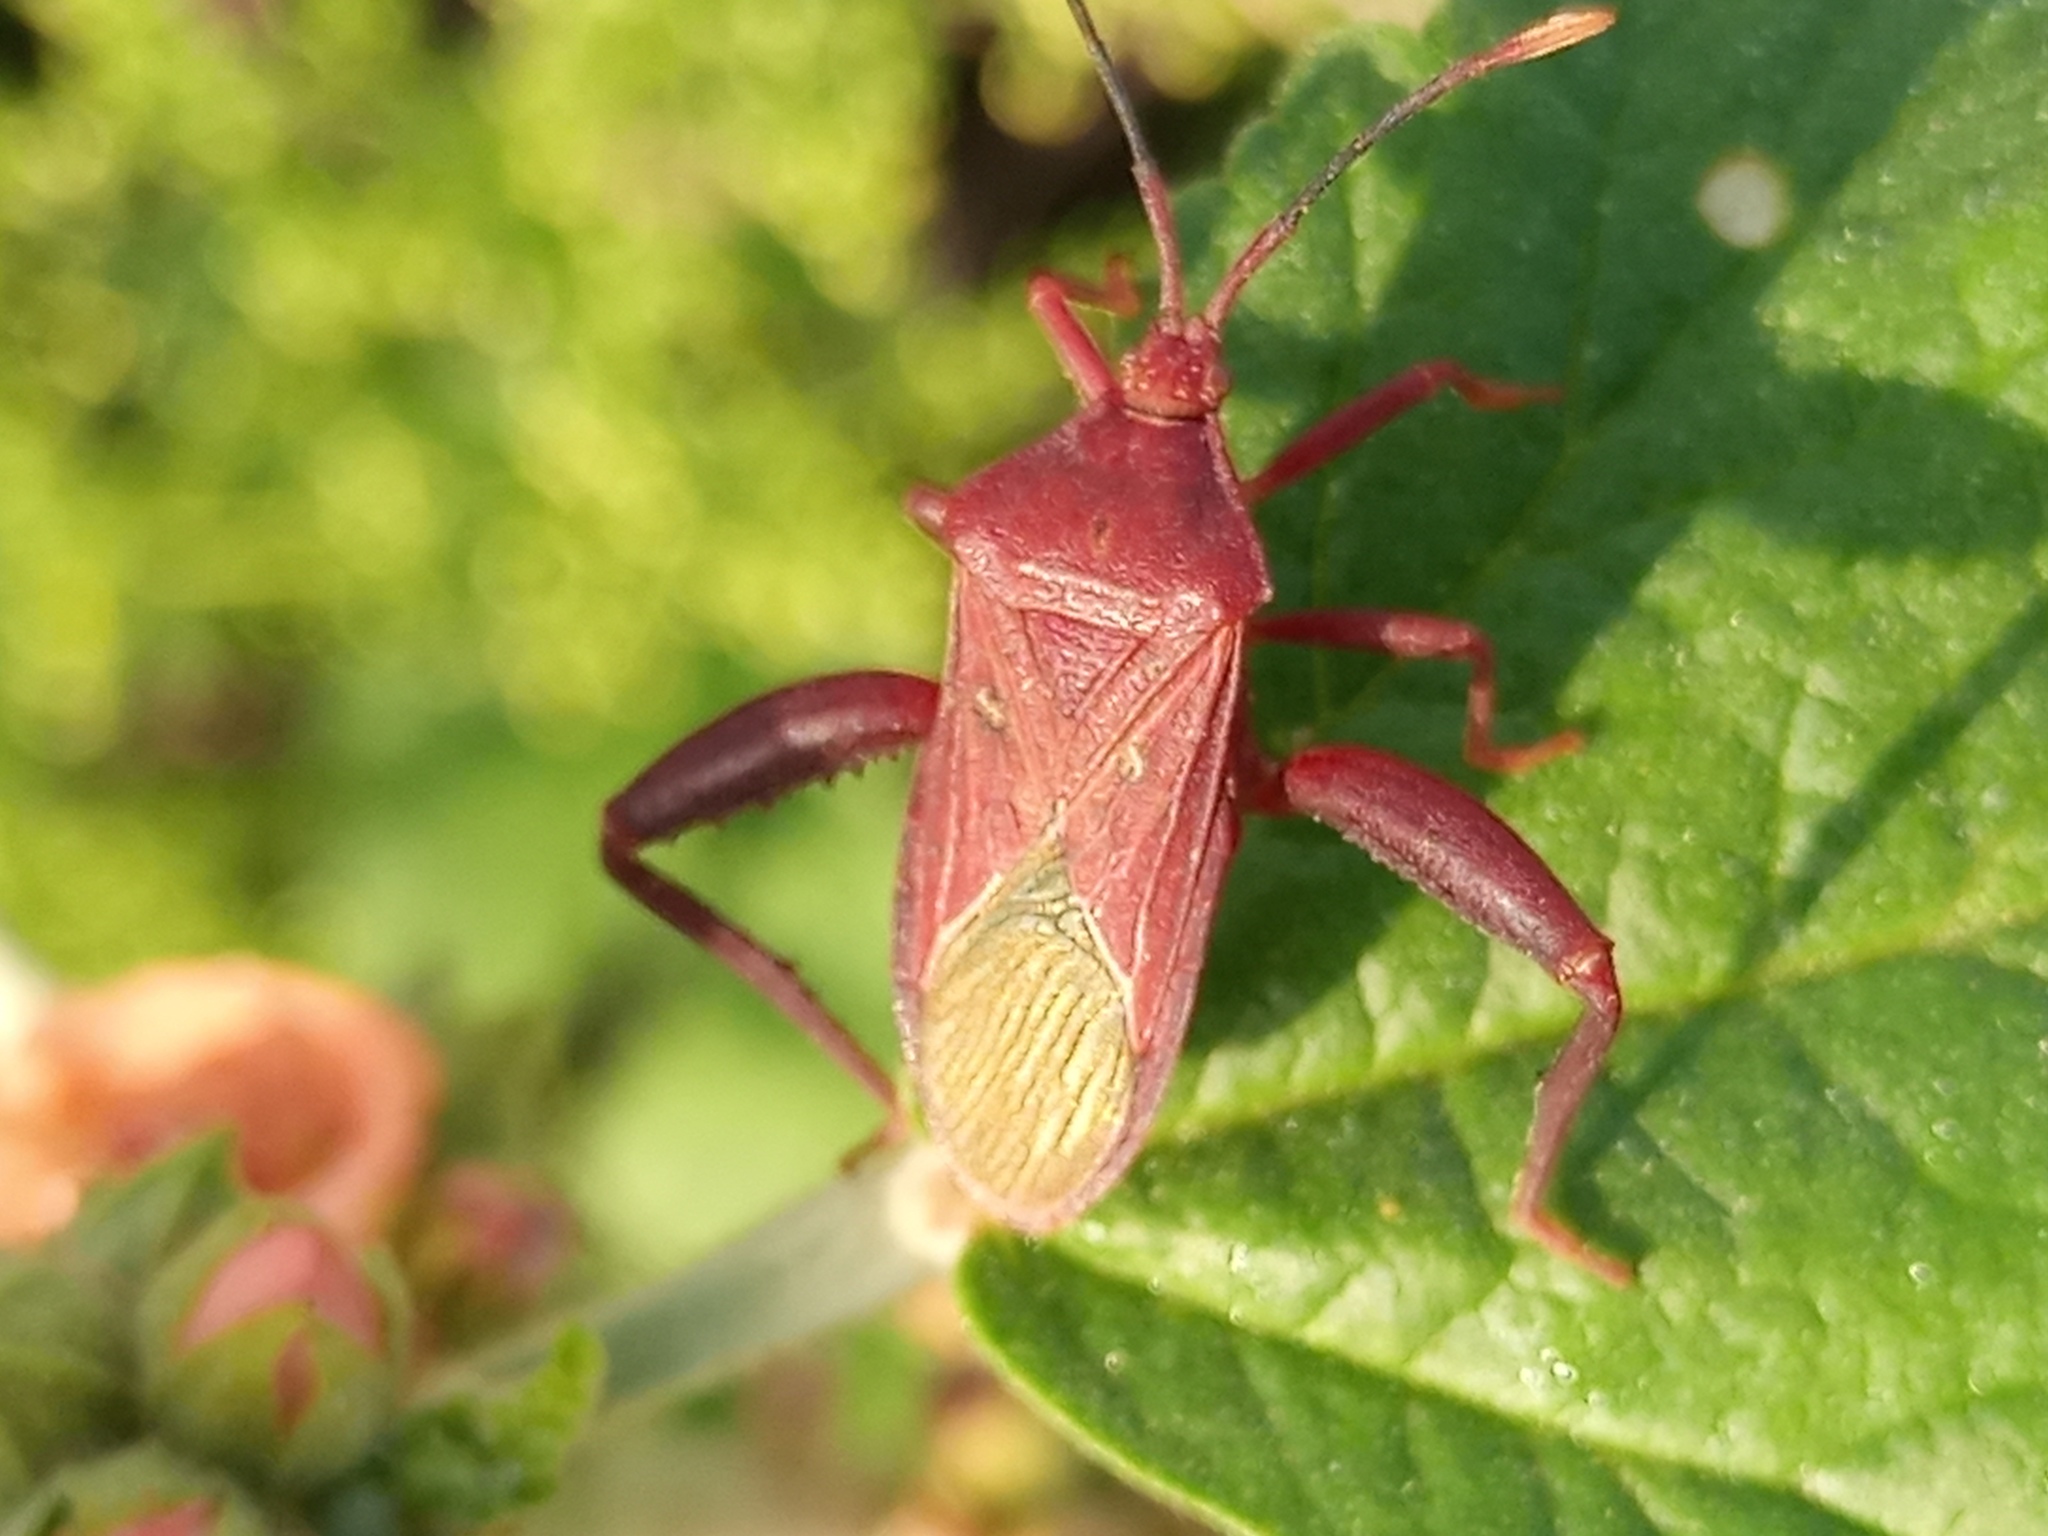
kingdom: Animalia
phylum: Arthropoda
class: Insecta
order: Hemiptera
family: Coreidae
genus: Athaumastus
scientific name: Athaumastus haematicus
